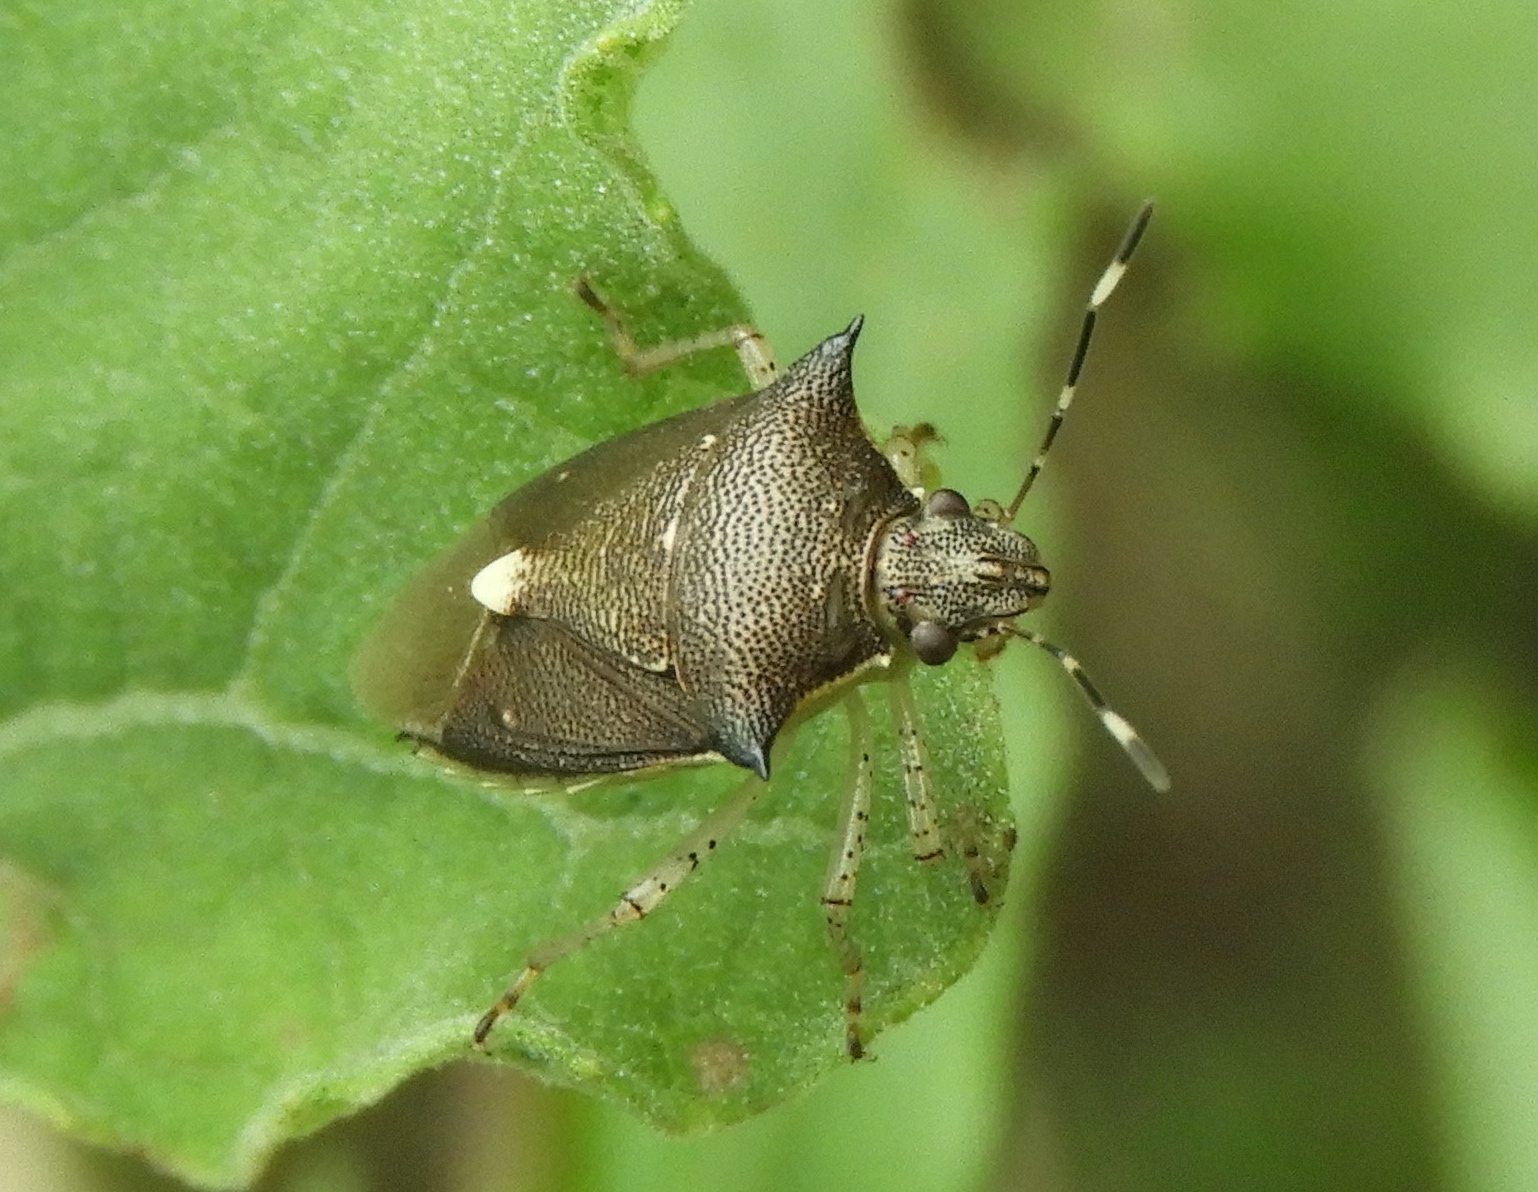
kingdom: Animalia
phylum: Arthropoda
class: Insecta
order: Hemiptera
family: Pentatomidae
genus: Proxys
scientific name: Proxys punctulatus
